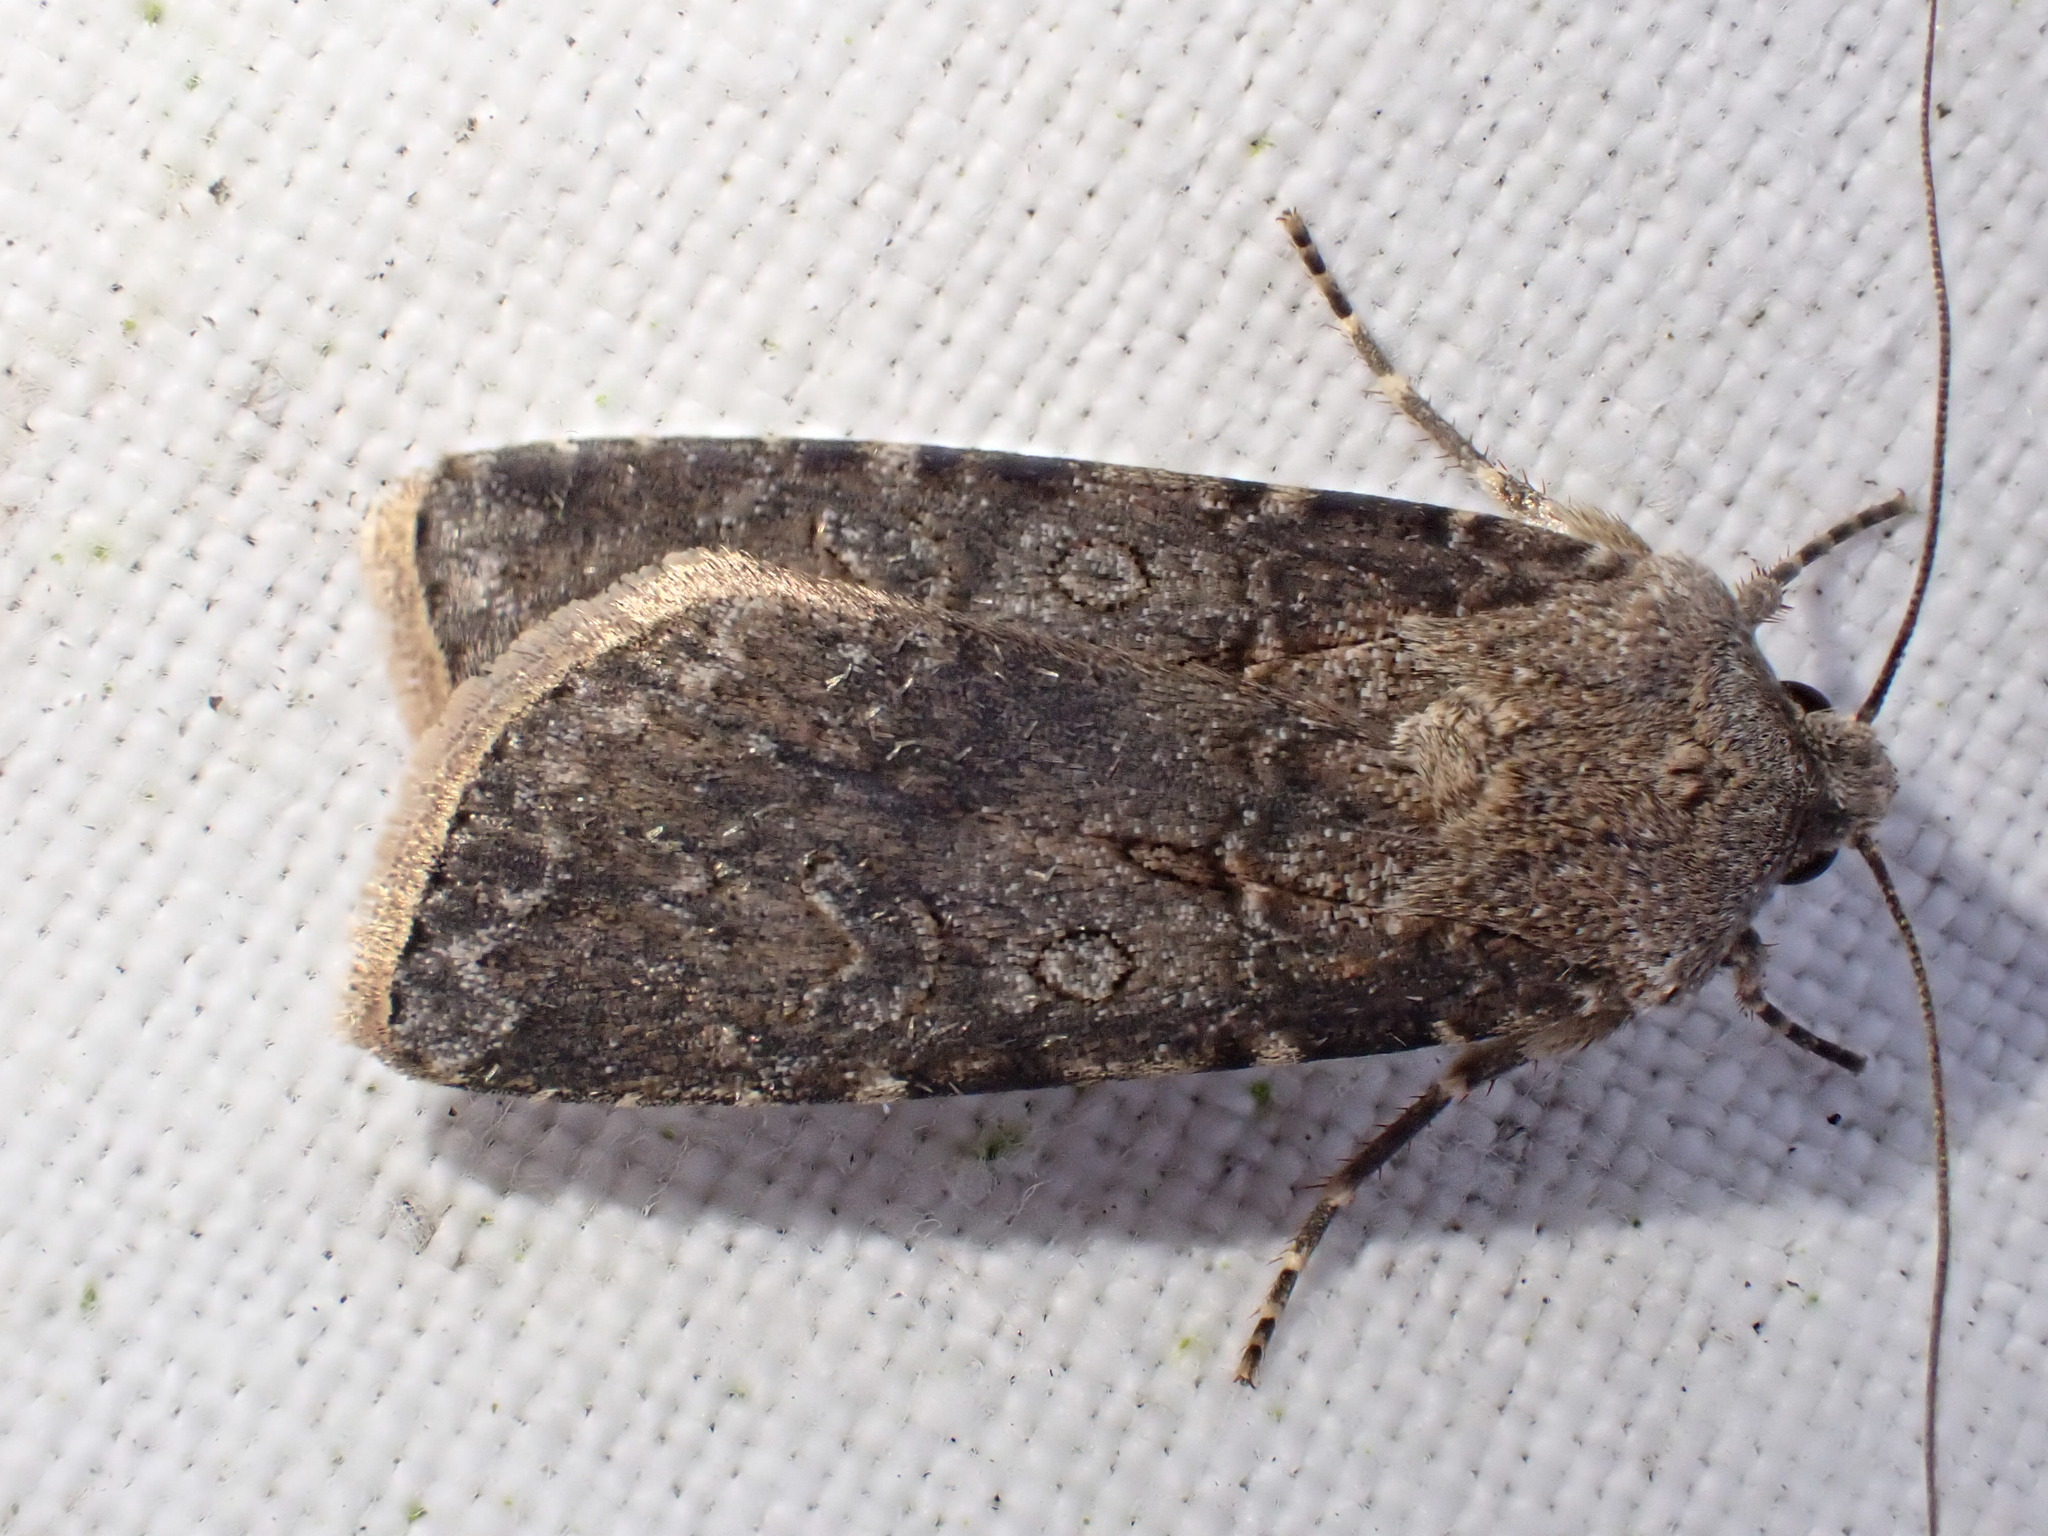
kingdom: Animalia
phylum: Arthropoda
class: Insecta
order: Lepidoptera
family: Noctuidae
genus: Agrotis
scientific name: Agrotis segetum
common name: Turnip moth
